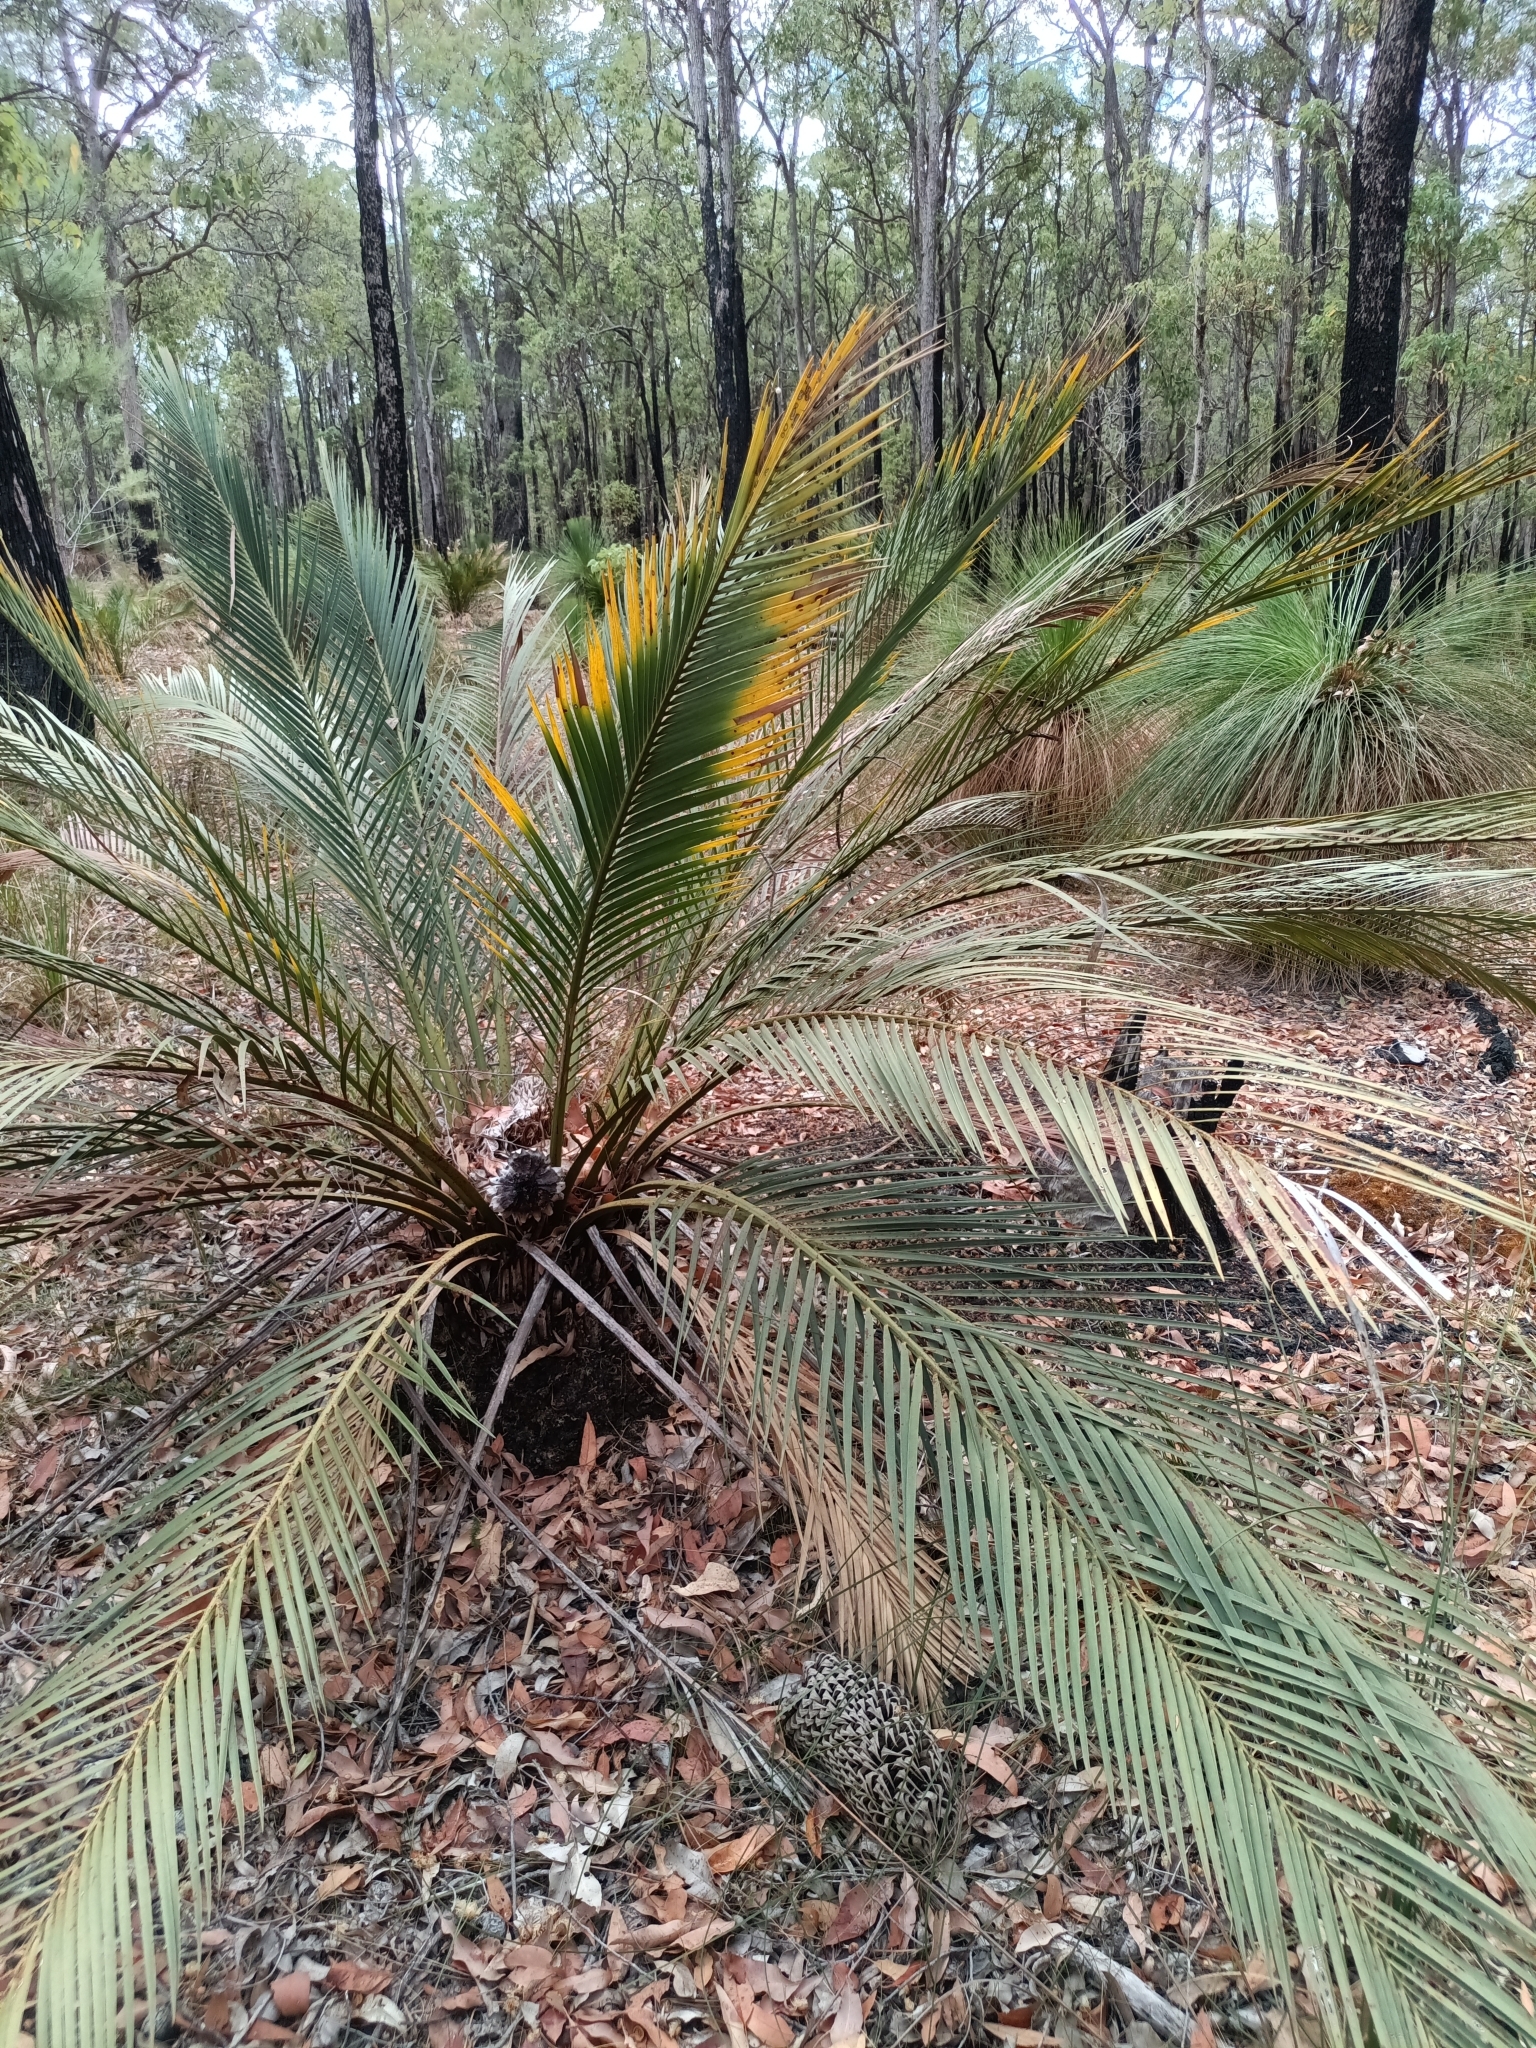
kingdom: Plantae
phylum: Tracheophyta
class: Cycadopsida
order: Cycadales
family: Zamiaceae
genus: Macrozamia
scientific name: Macrozamia riedlei
